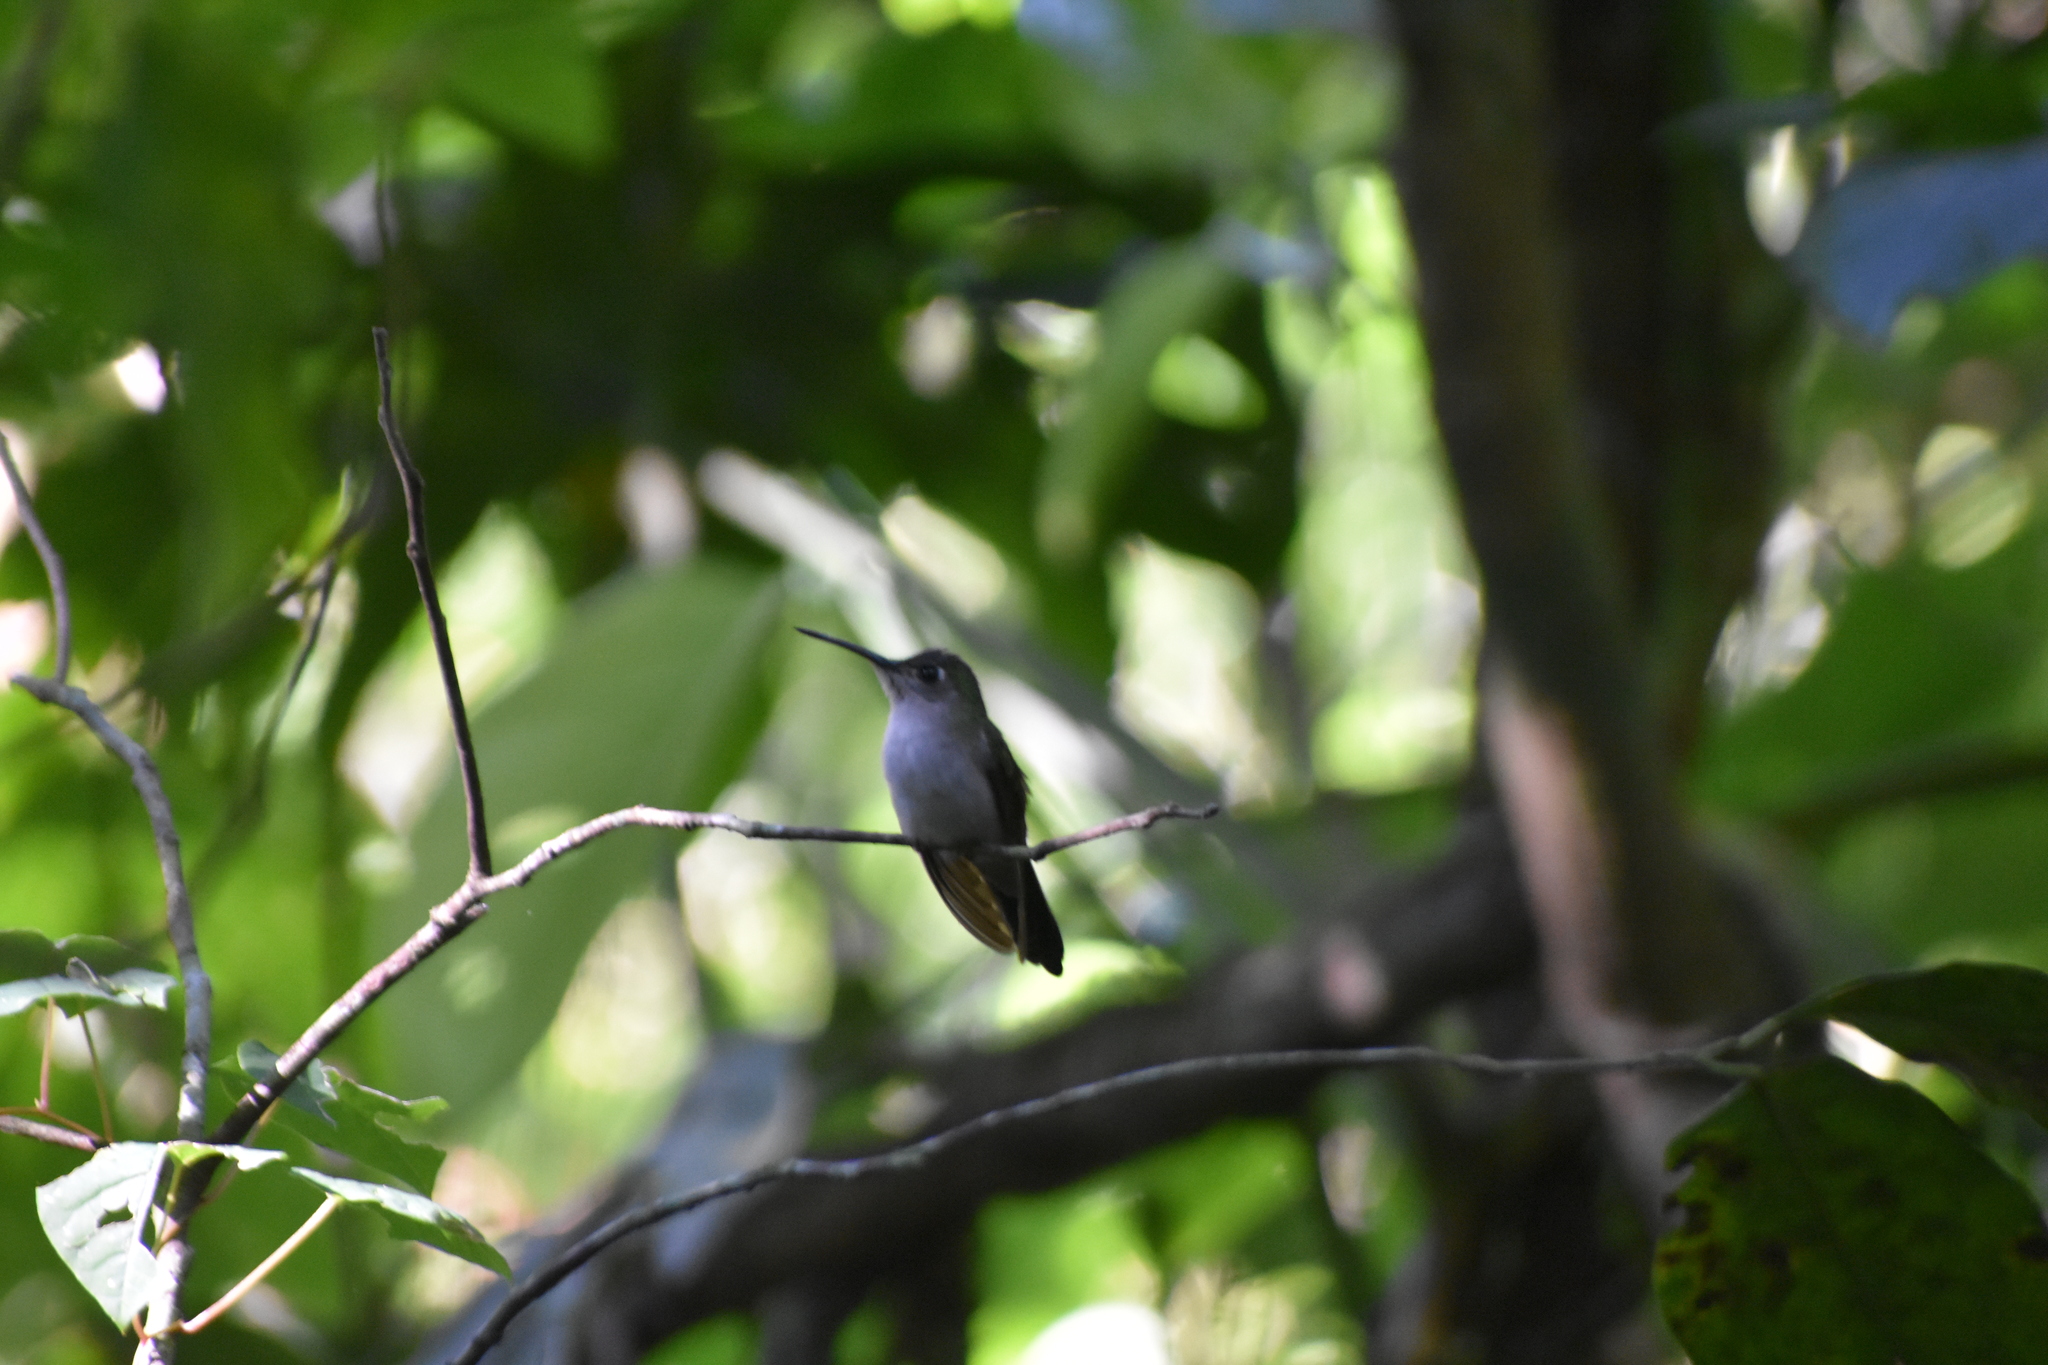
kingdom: Animalia
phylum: Chordata
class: Aves
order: Apodiformes
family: Trochilidae
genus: Pampa
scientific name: Pampa curvipennis
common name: Curve-winged sabrewing
